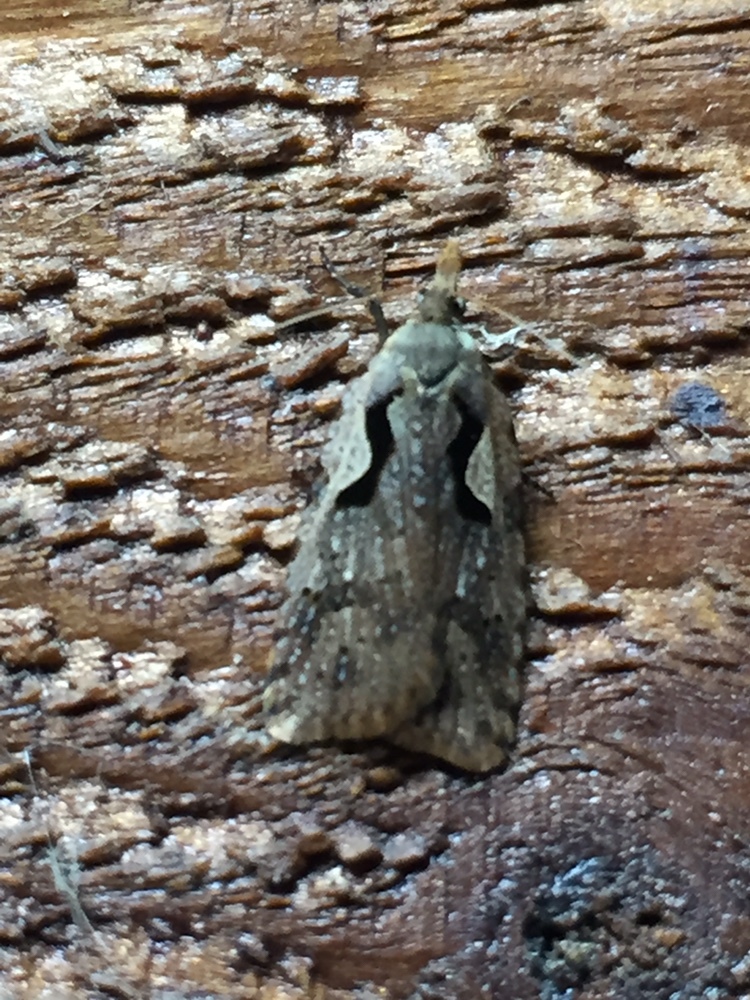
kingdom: Animalia
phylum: Arthropoda
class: Insecta
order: Lepidoptera
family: Tortricidae
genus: Cnephasia
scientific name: Cnephasia jactatana
